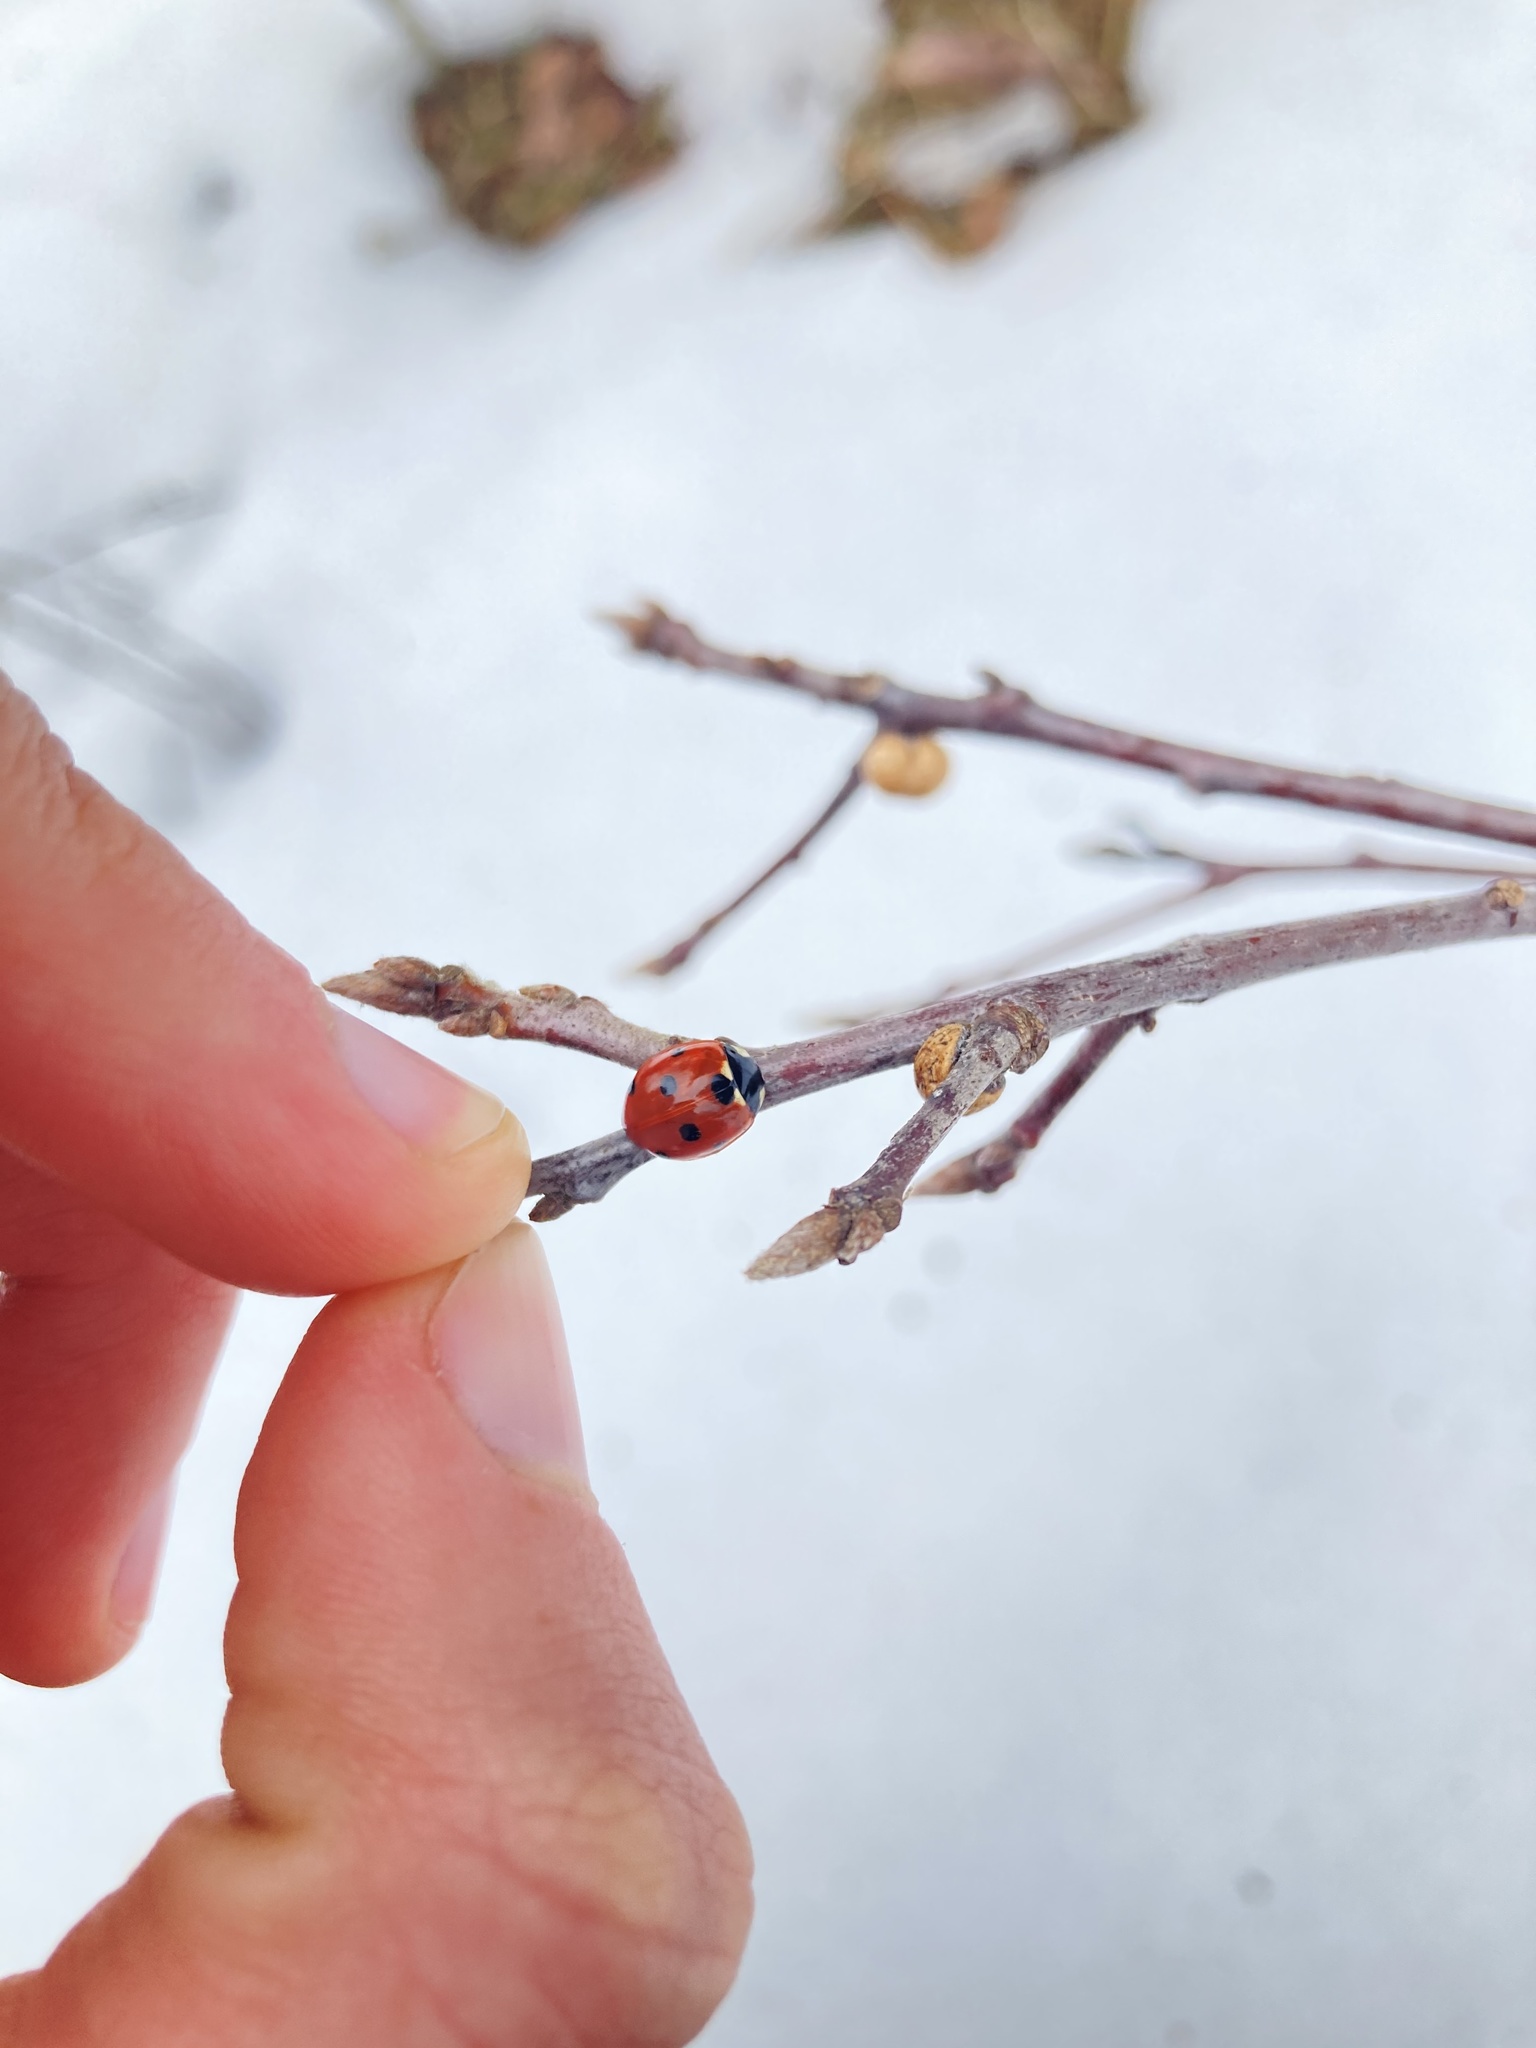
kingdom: Animalia
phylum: Arthropoda
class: Insecta
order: Coleoptera
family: Coccinellidae
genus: Coccinella
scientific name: Coccinella septempunctata
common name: Sevenspotted lady beetle
